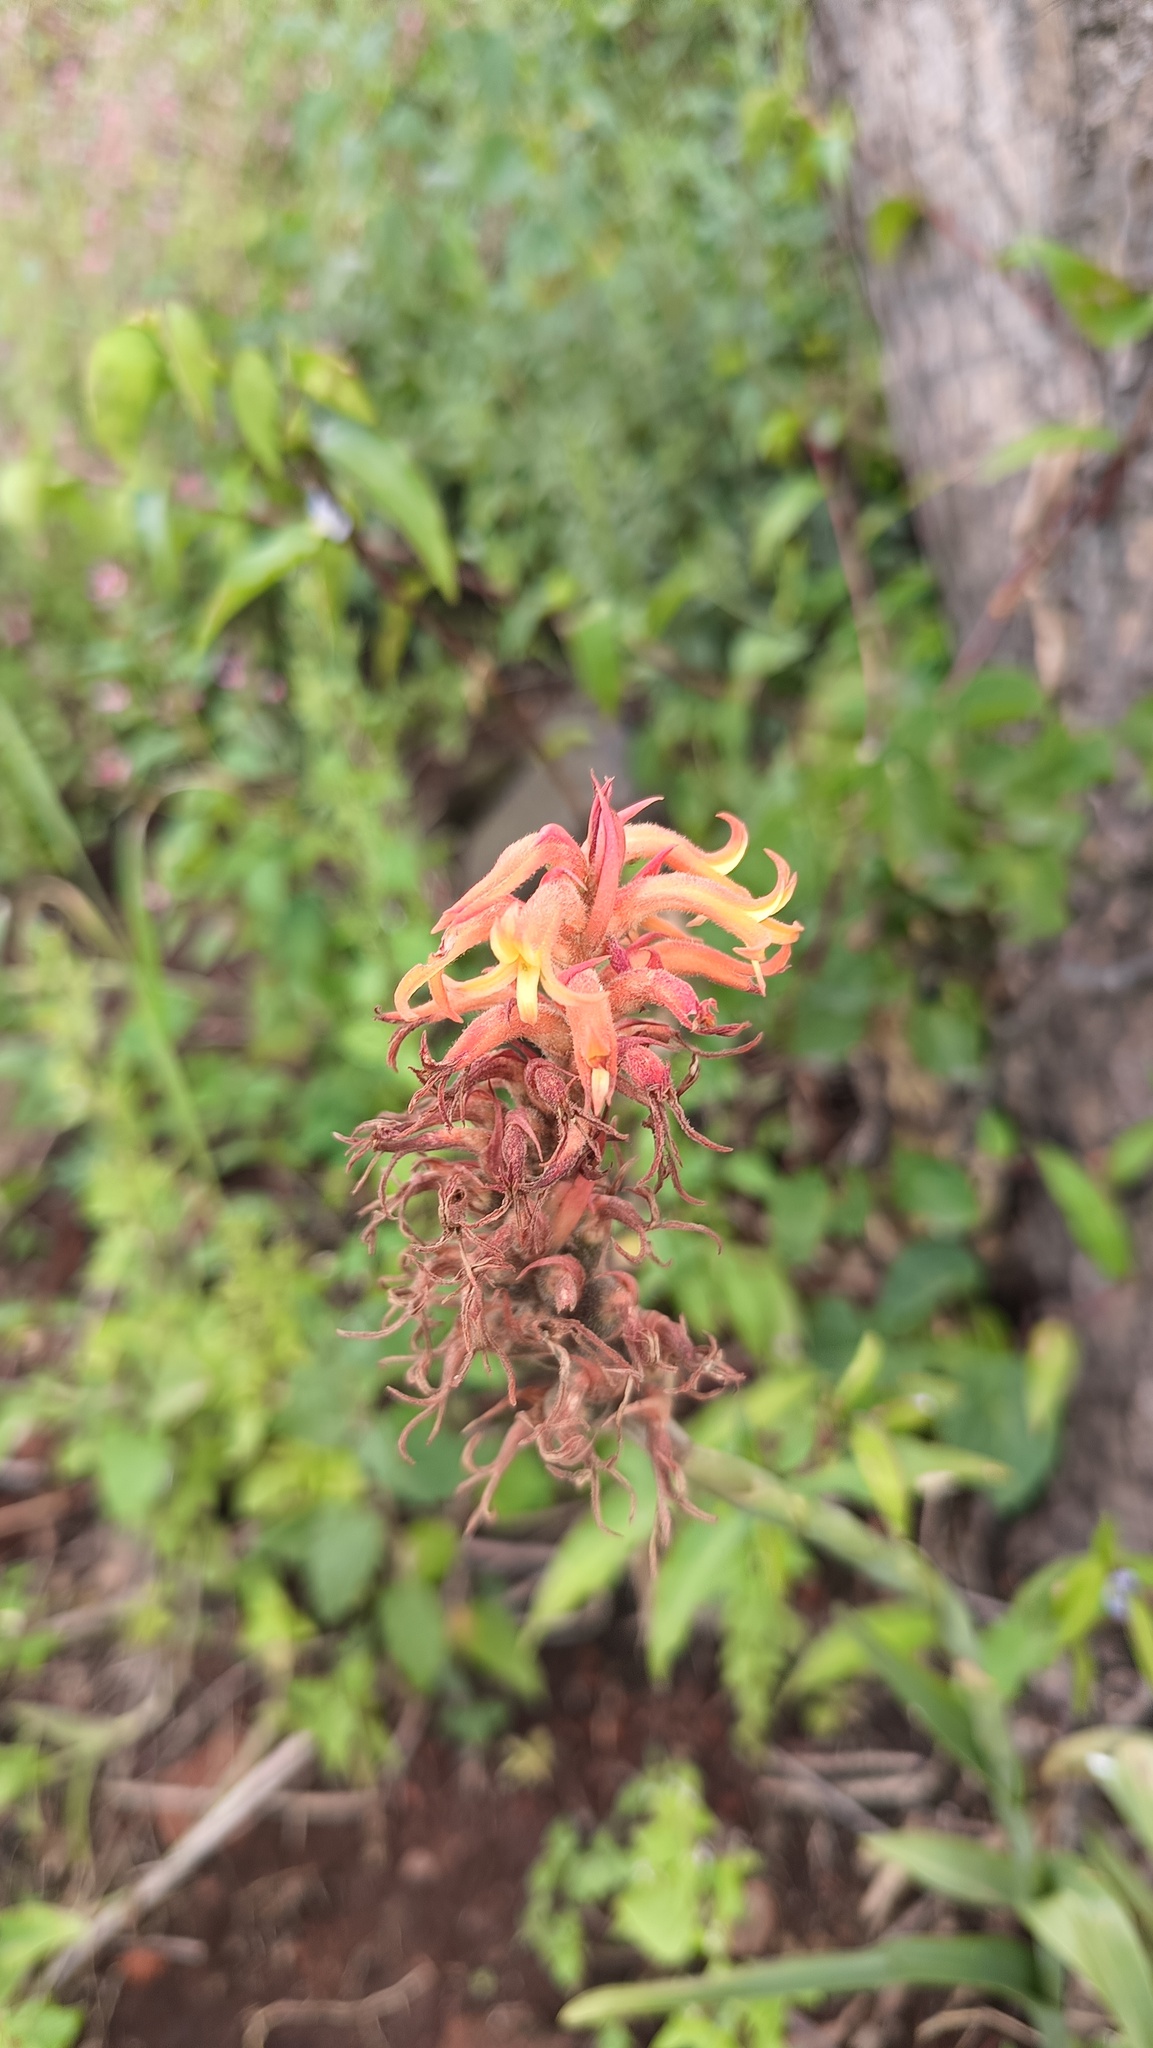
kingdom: Plantae
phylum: Tracheophyta
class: Liliopsida
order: Asparagales
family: Orchidaceae
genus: Dichromanthus
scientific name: Dichromanthus cinnabarinus
